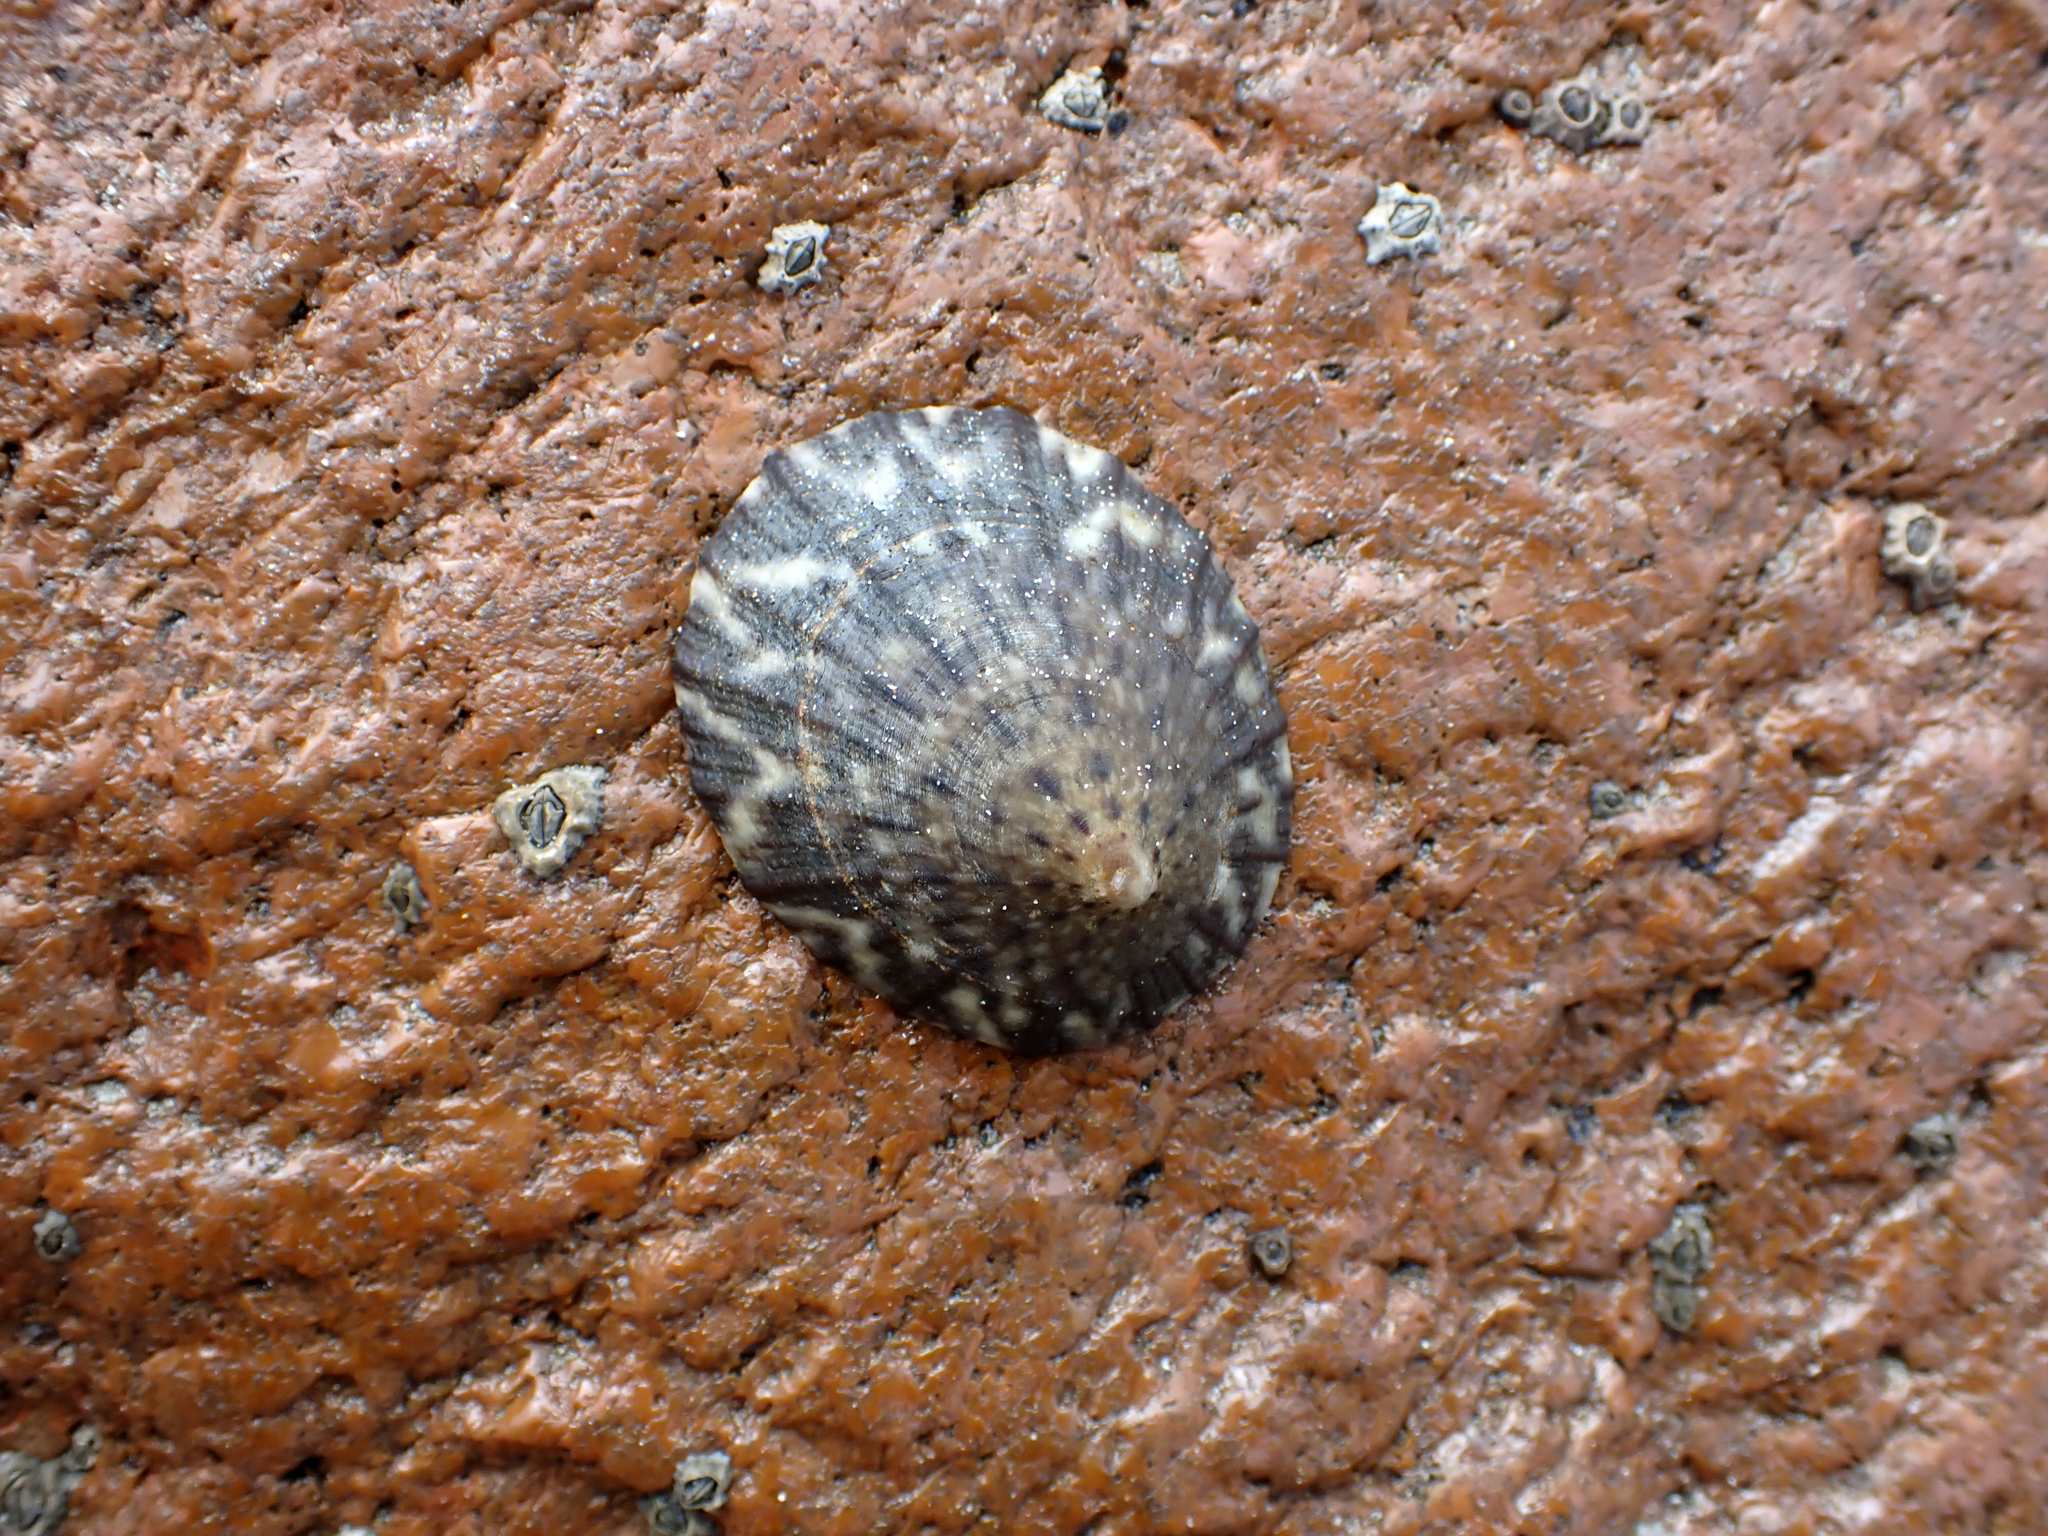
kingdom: Animalia
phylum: Mollusca
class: Gastropoda
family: Nacellidae
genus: Cellana
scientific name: Cellana radians
